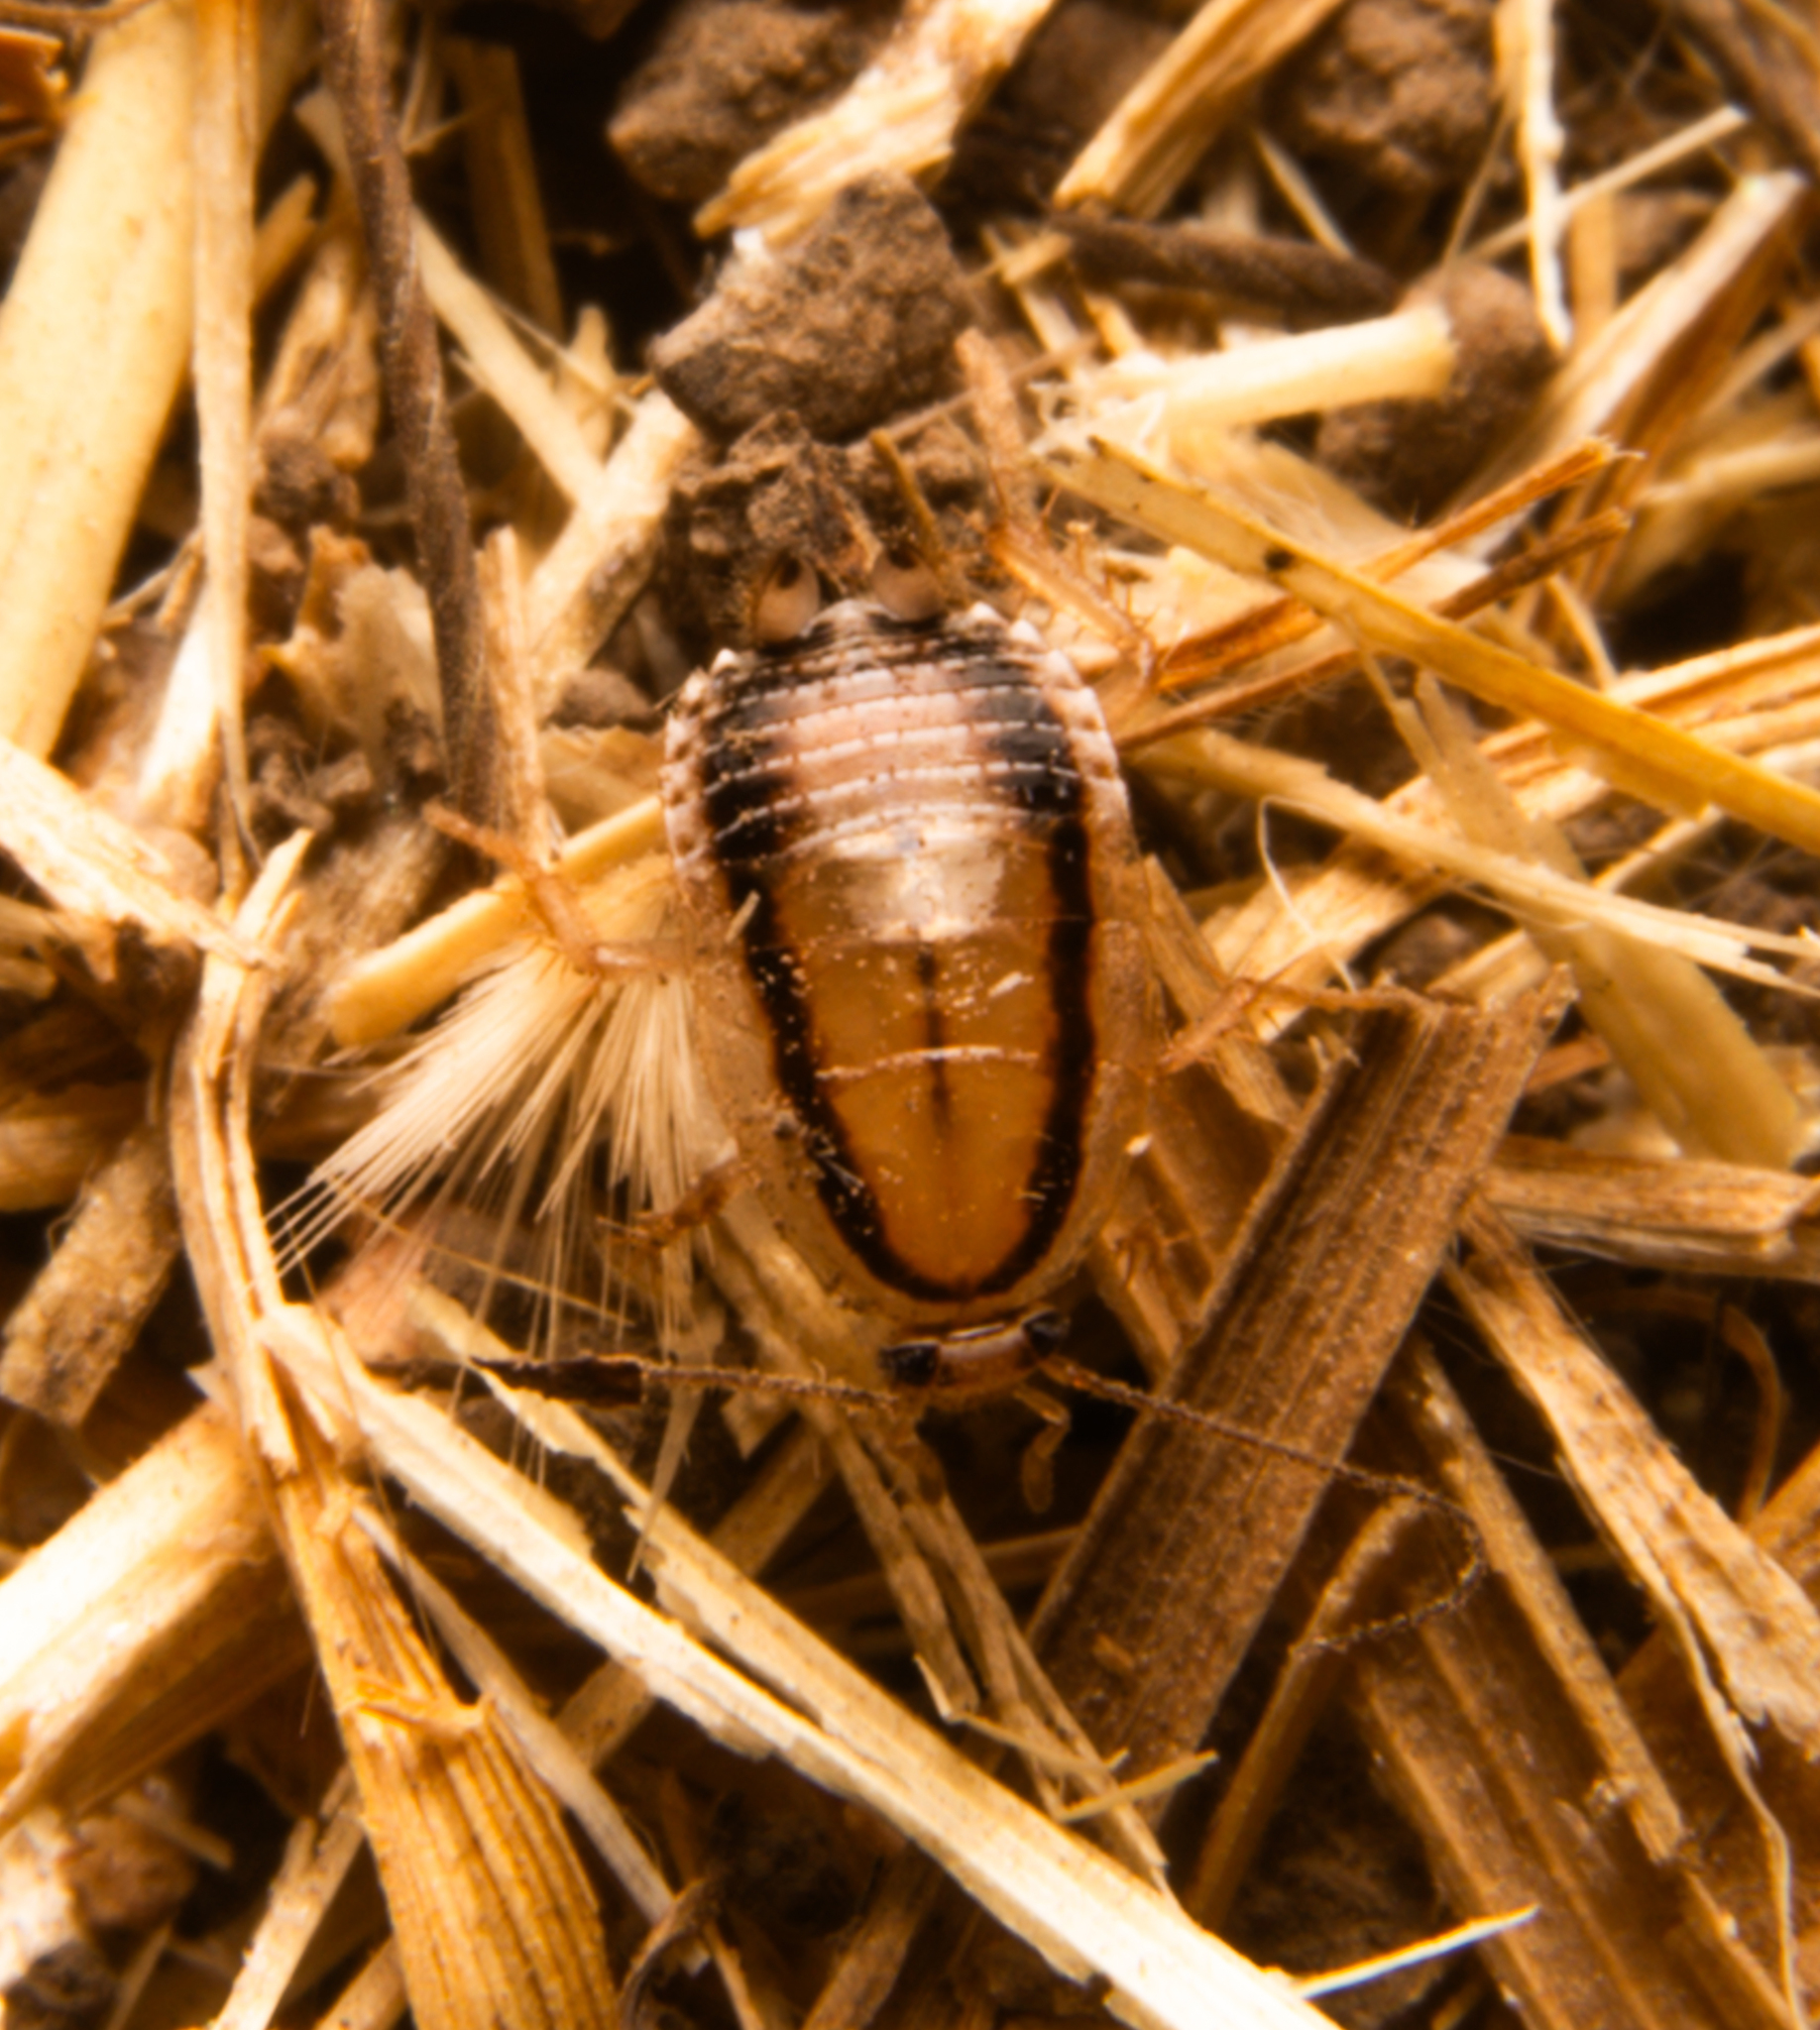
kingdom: Animalia
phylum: Arthropoda
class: Insecta
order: Blattodea
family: Ectobiidae
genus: Luridiblatta
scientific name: Luridiblatta trivittata
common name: Three-lined cockroach
